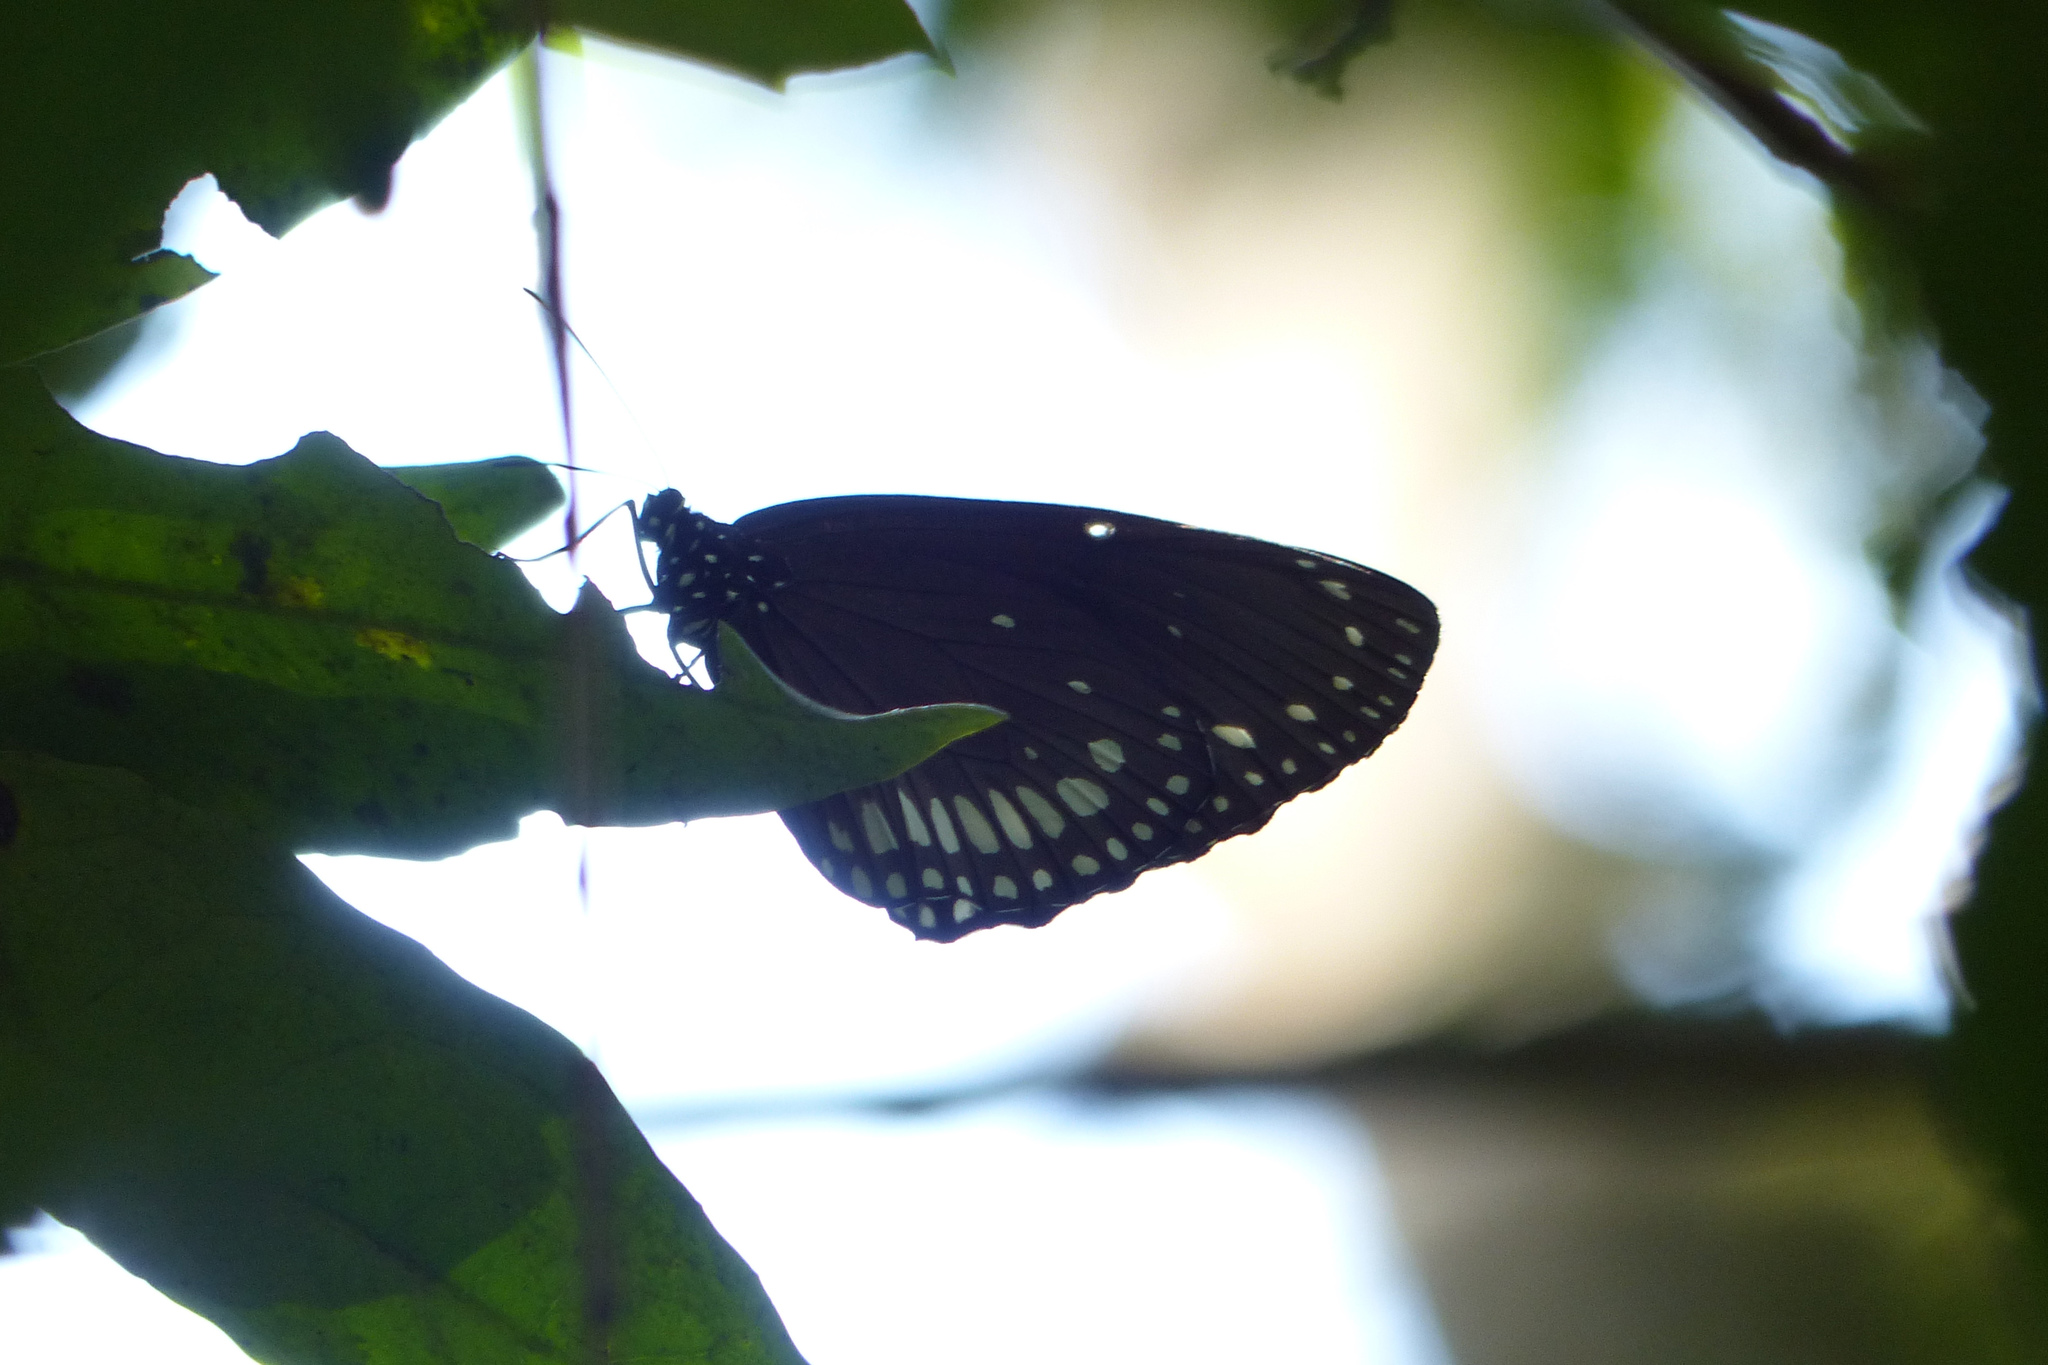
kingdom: Animalia
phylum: Arthropoda
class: Insecta
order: Lepidoptera
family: Nymphalidae
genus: Euploea
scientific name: Euploea klugii
